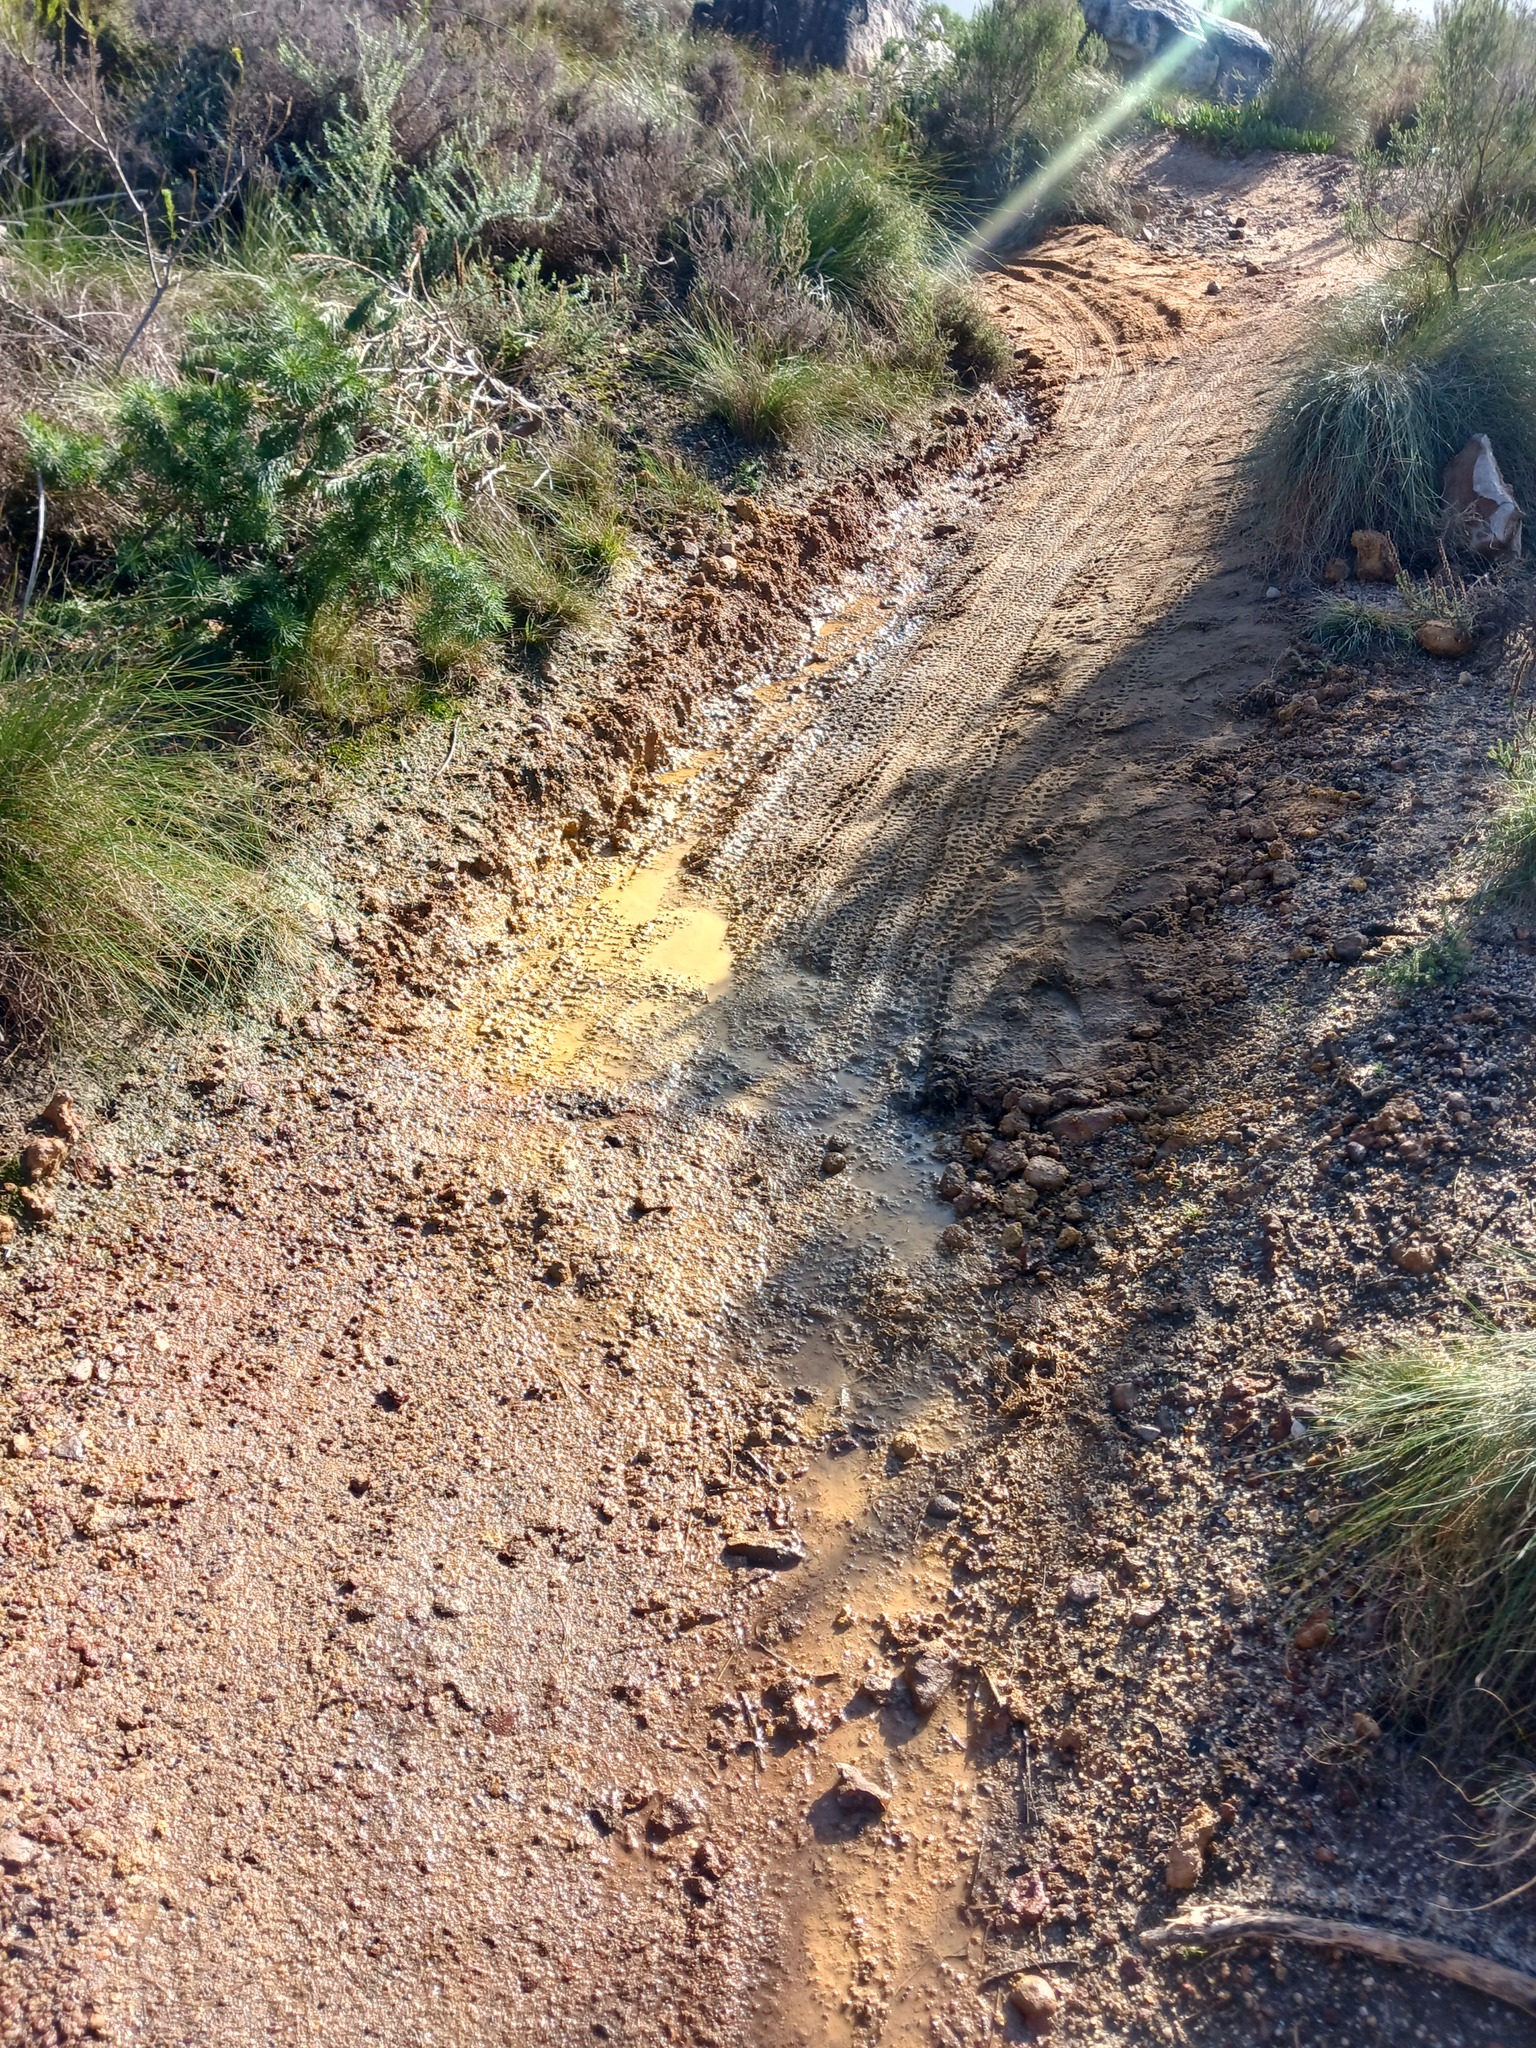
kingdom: Plantae
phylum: Tracheophyta
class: Magnoliopsida
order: Fabales
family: Fabaceae
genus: Psoralea
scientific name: Psoralea pinnata
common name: African scurfpea
